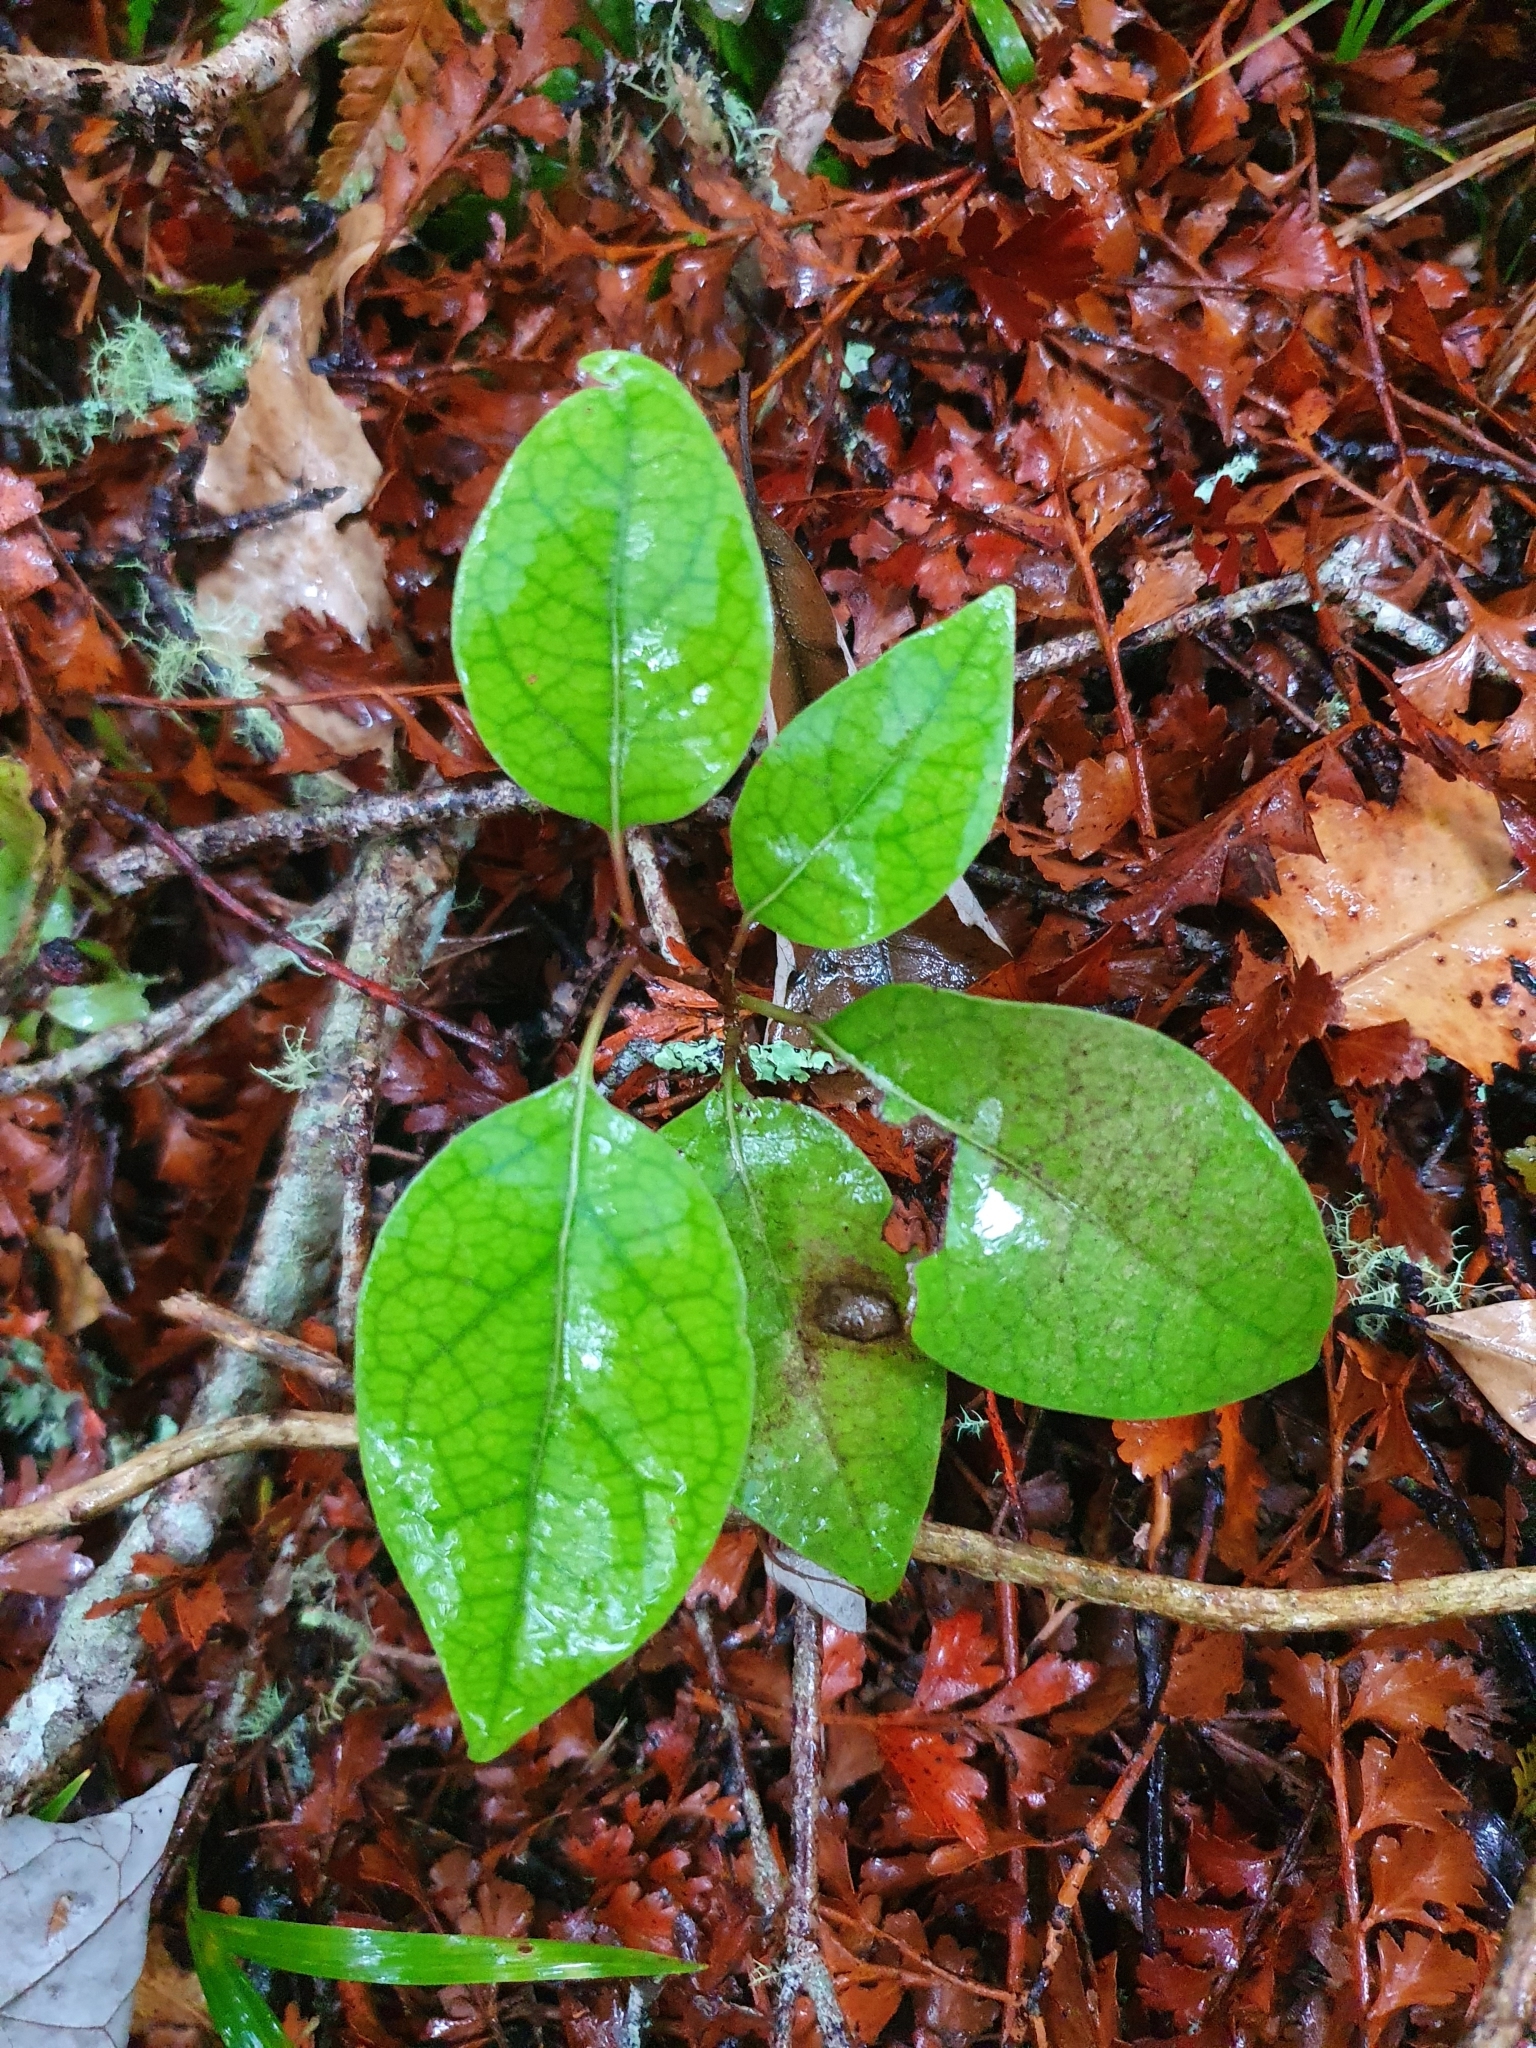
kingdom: Plantae
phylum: Tracheophyta
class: Magnoliopsida
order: Laurales
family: Lauraceae
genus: Litsea
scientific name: Litsea calicaris
